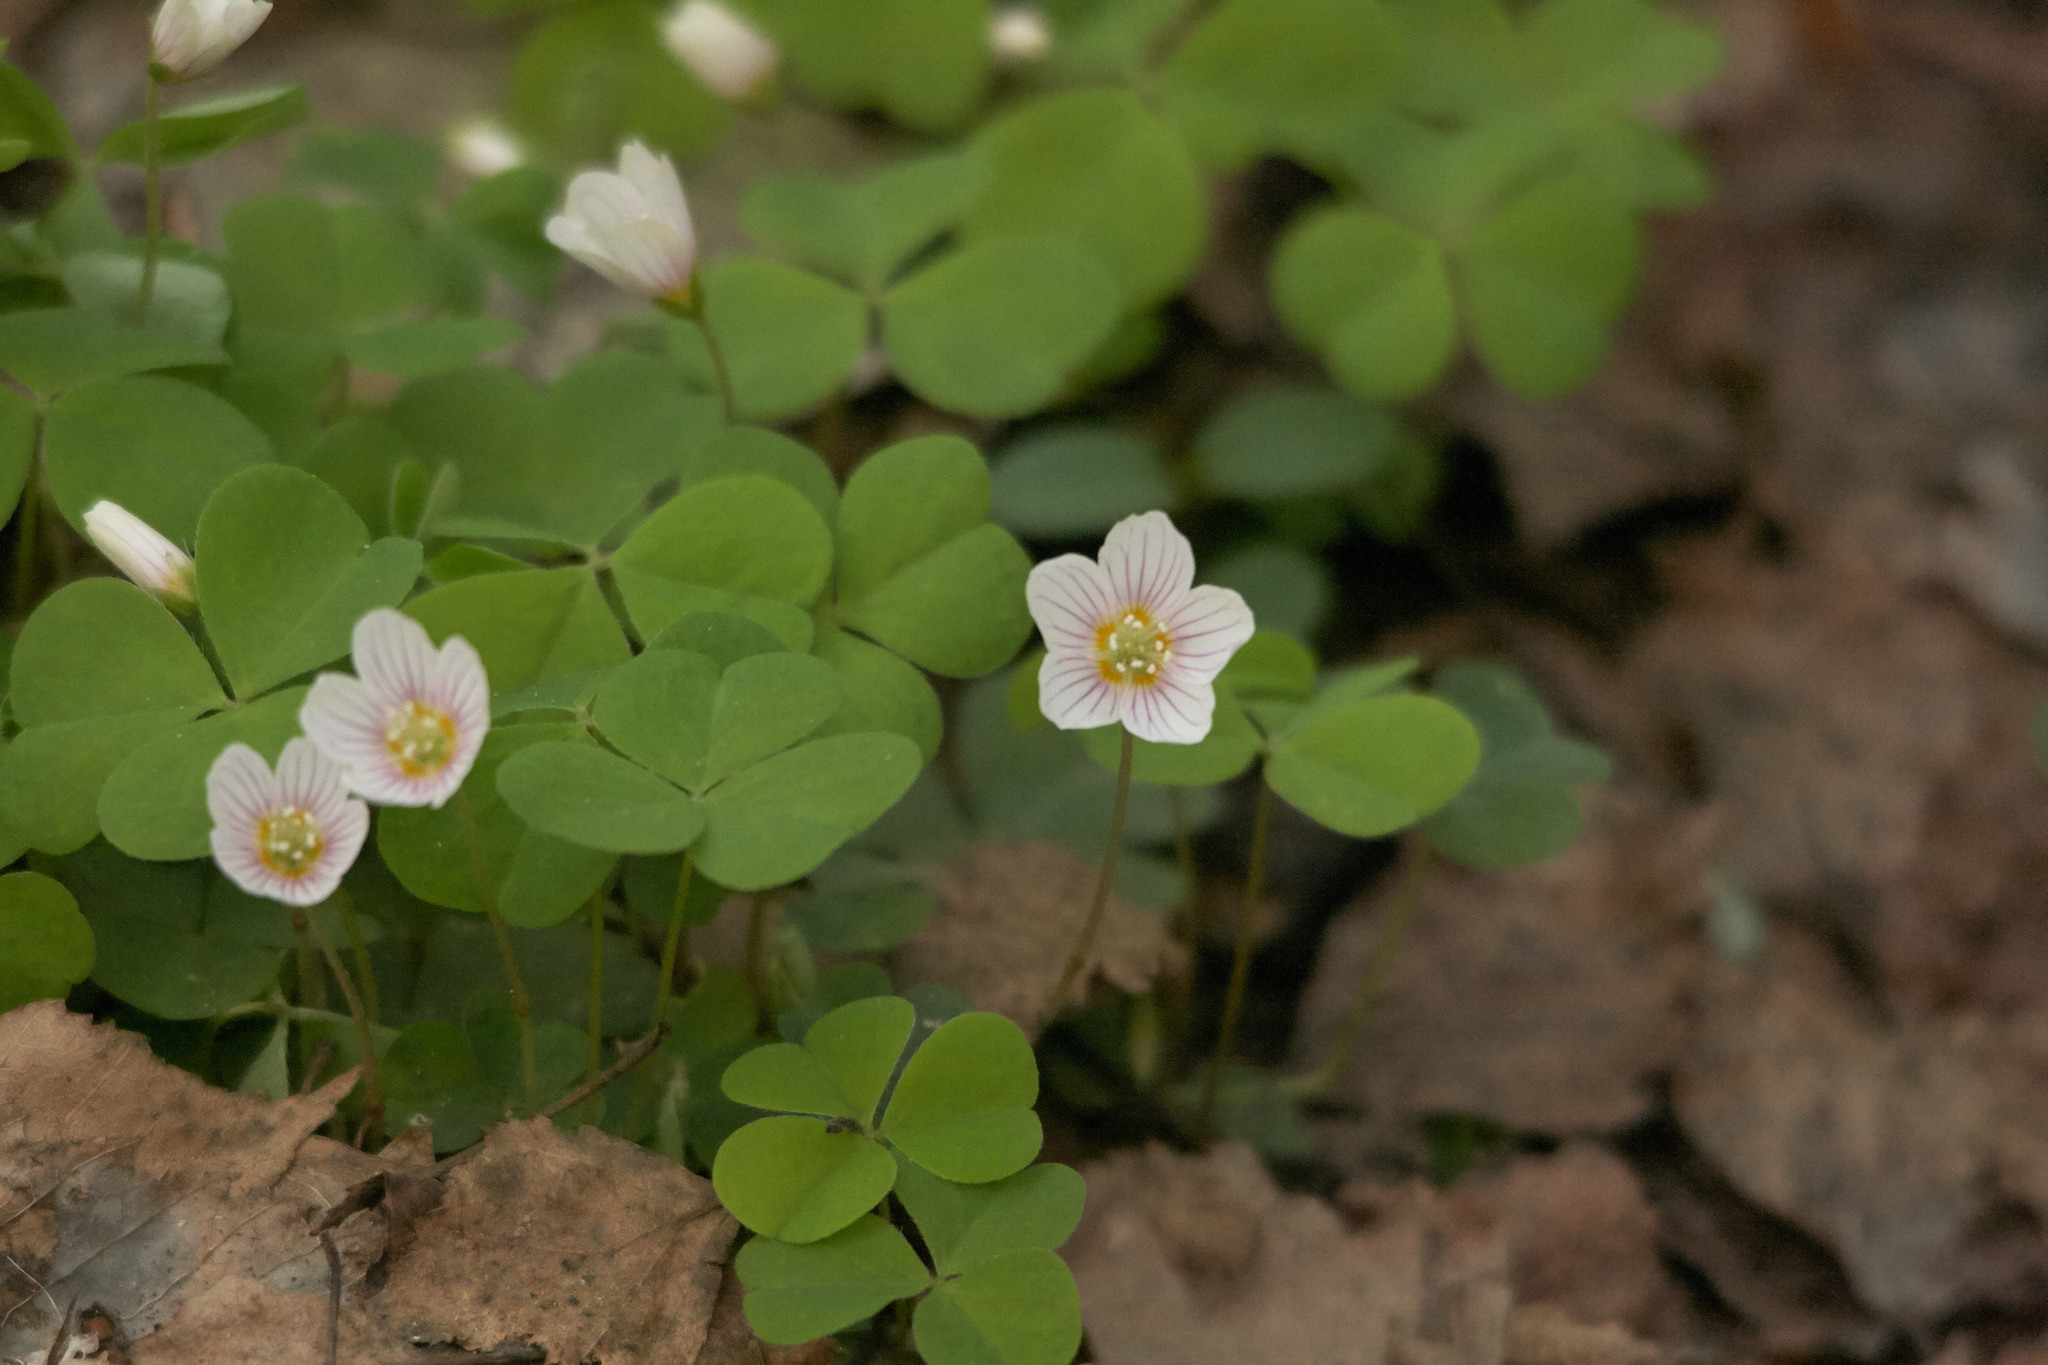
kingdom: Plantae
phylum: Tracheophyta
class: Magnoliopsida
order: Oxalidales
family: Oxalidaceae
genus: Oxalis
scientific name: Oxalis acetosella
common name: Wood-sorrel
